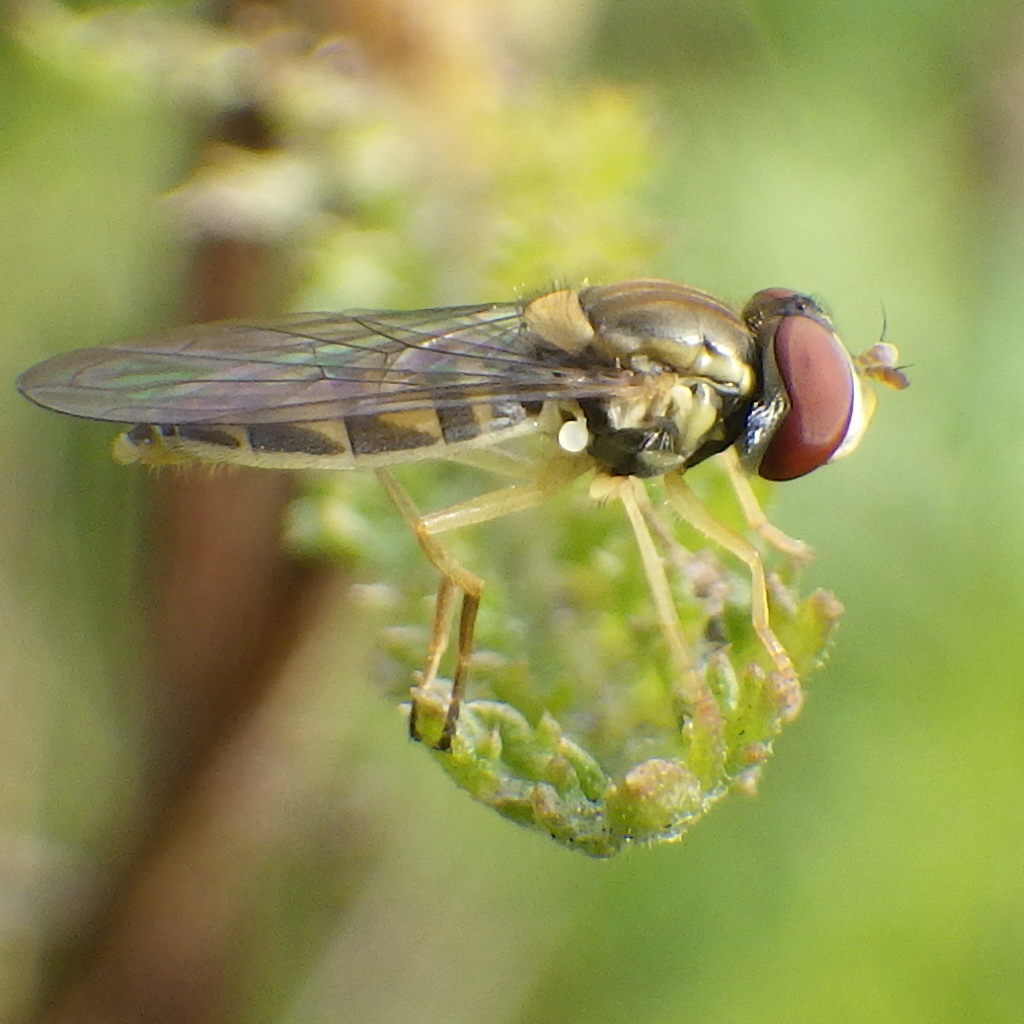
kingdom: Animalia
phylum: Arthropoda
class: Insecta
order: Diptera
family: Syrphidae
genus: Toxomerus
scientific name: Toxomerus marginatus
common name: Syrphid fly
